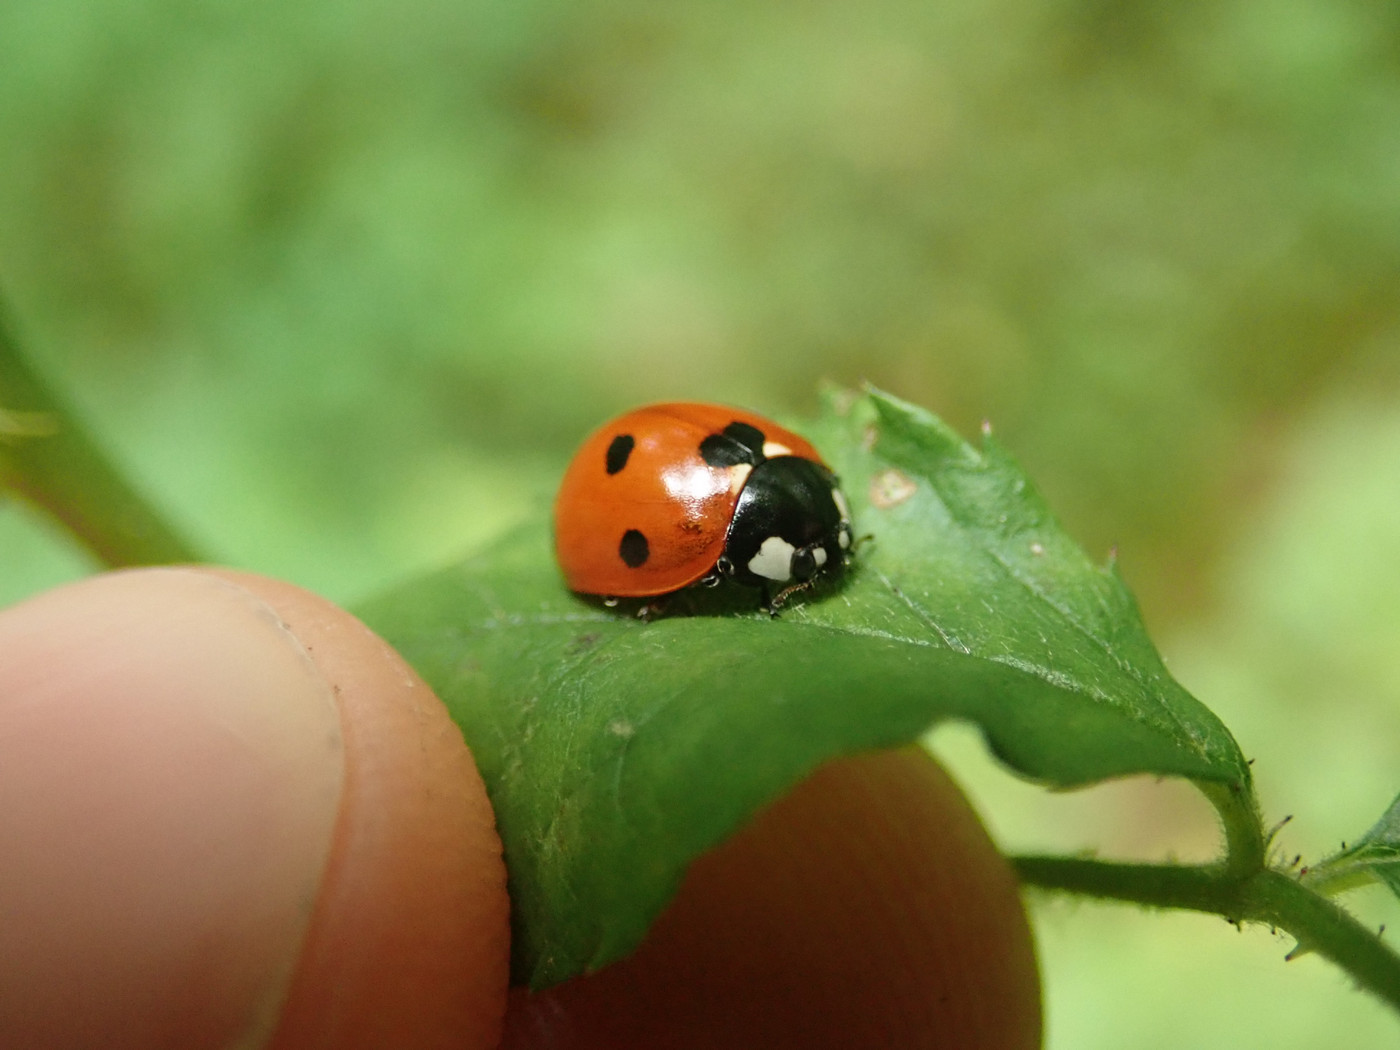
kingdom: Animalia
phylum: Arthropoda
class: Insecta
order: Coleoptera
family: Coccinellidae
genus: Coccinella
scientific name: Coccinella septempunctata
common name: Sevenspotted lady beetle
